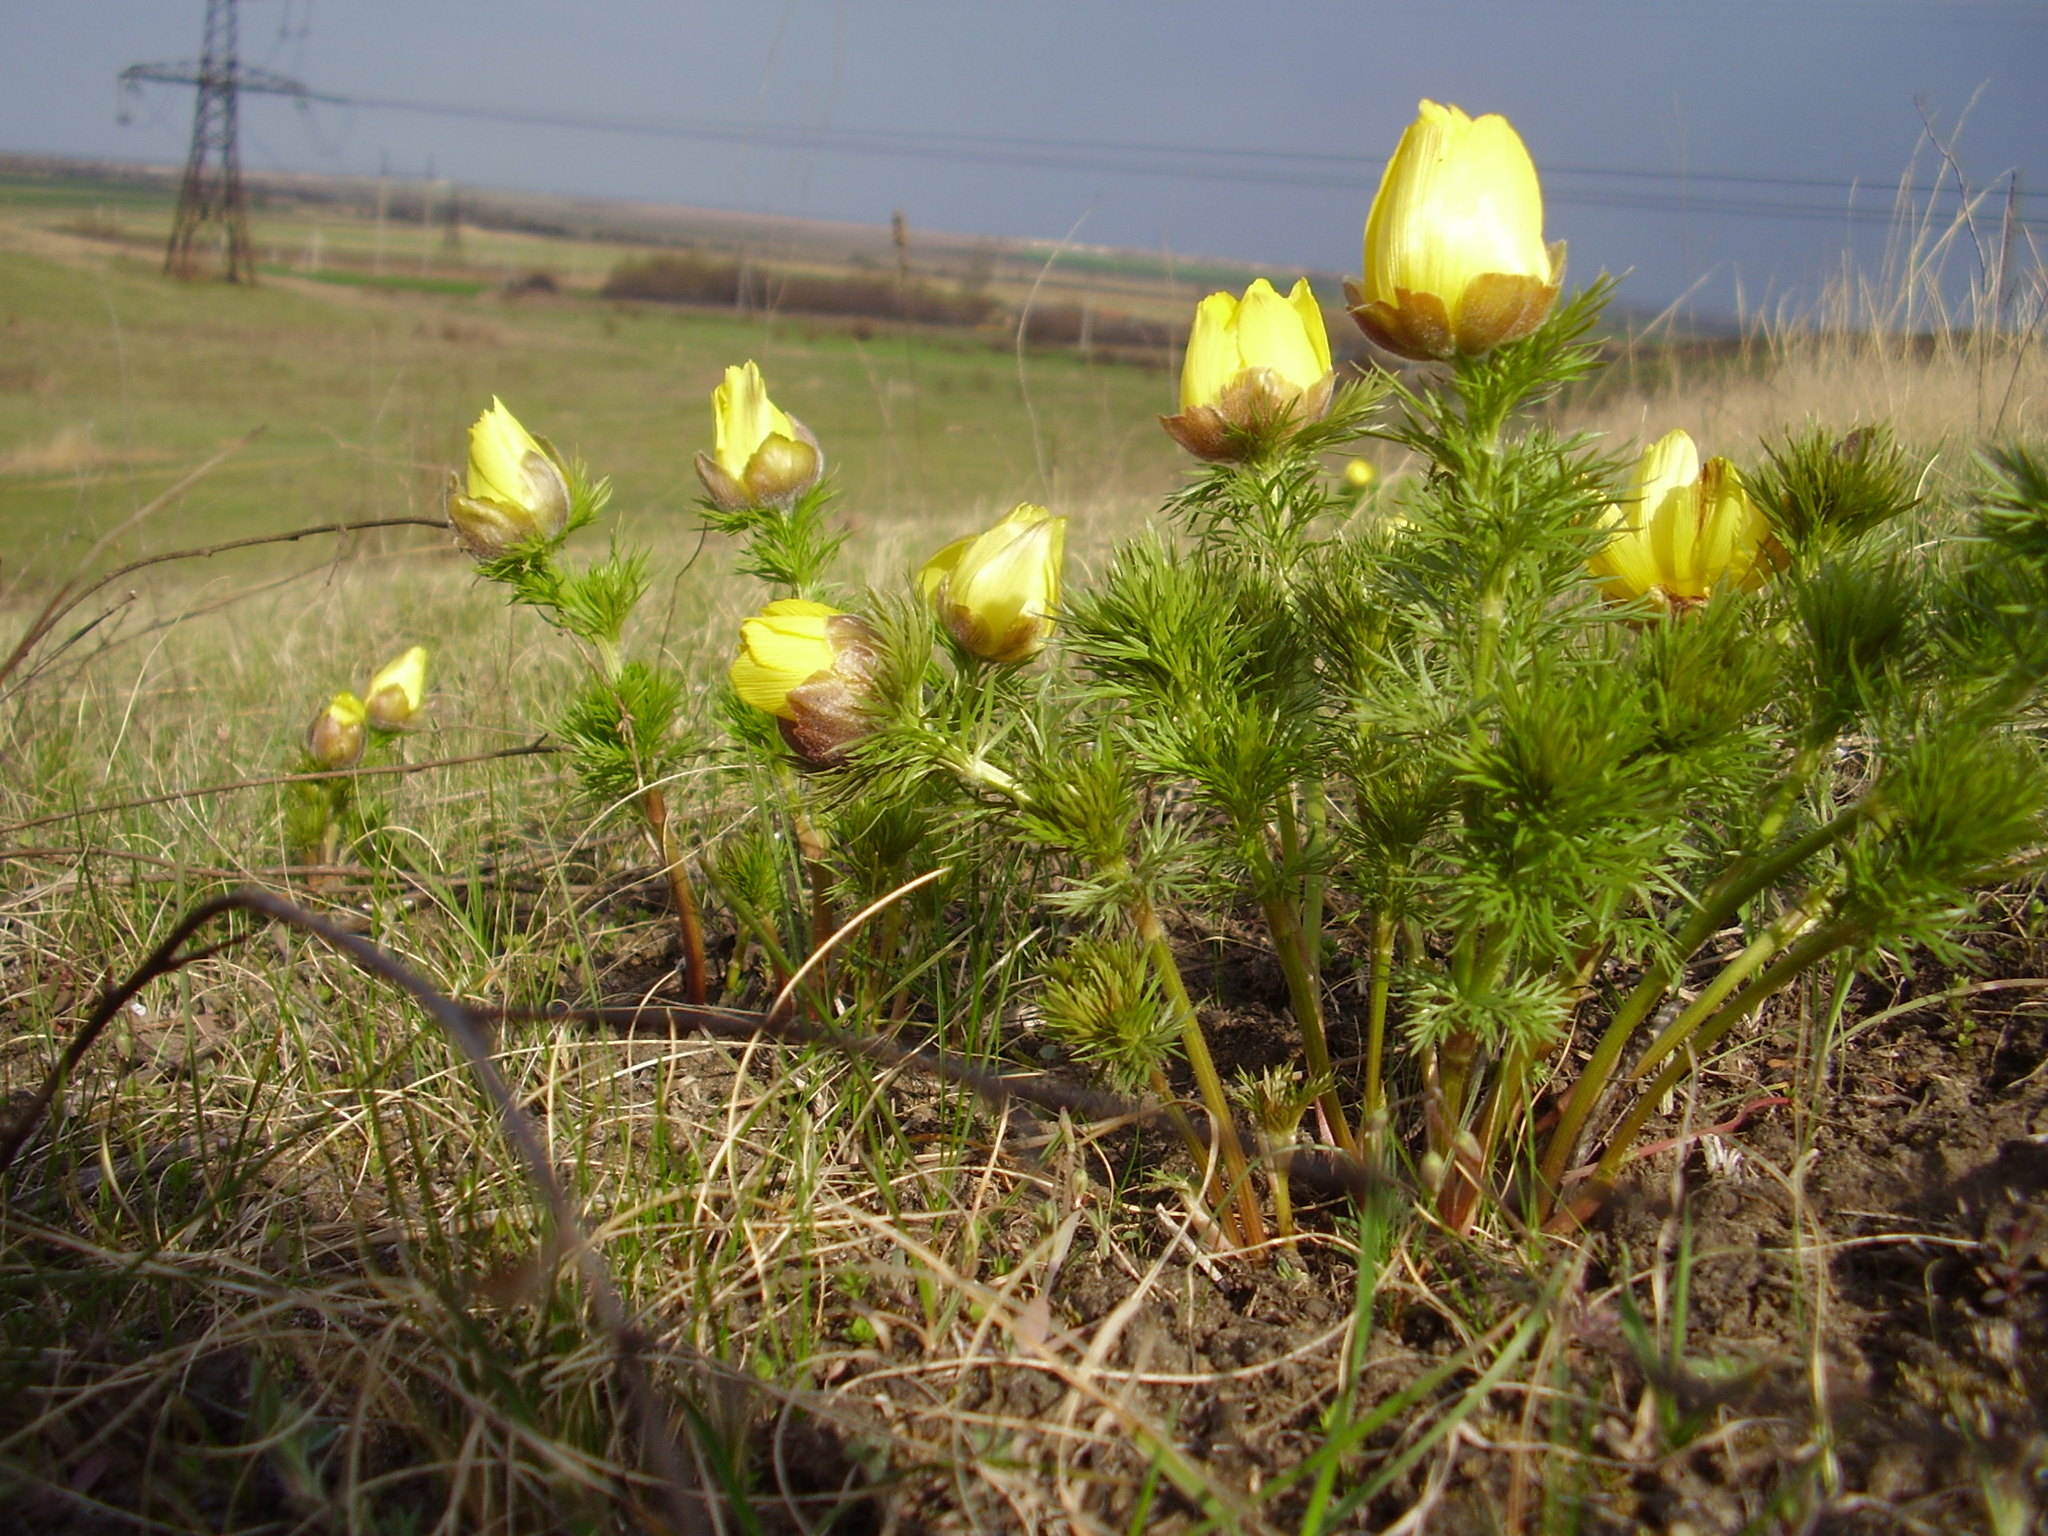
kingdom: Plantae
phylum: Tracheophyta
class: Magnoliopsida
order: Ranunculales
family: Ranunculaceae
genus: Adonis
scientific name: Adonis vernalis
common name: Yellow pheasants-eye
